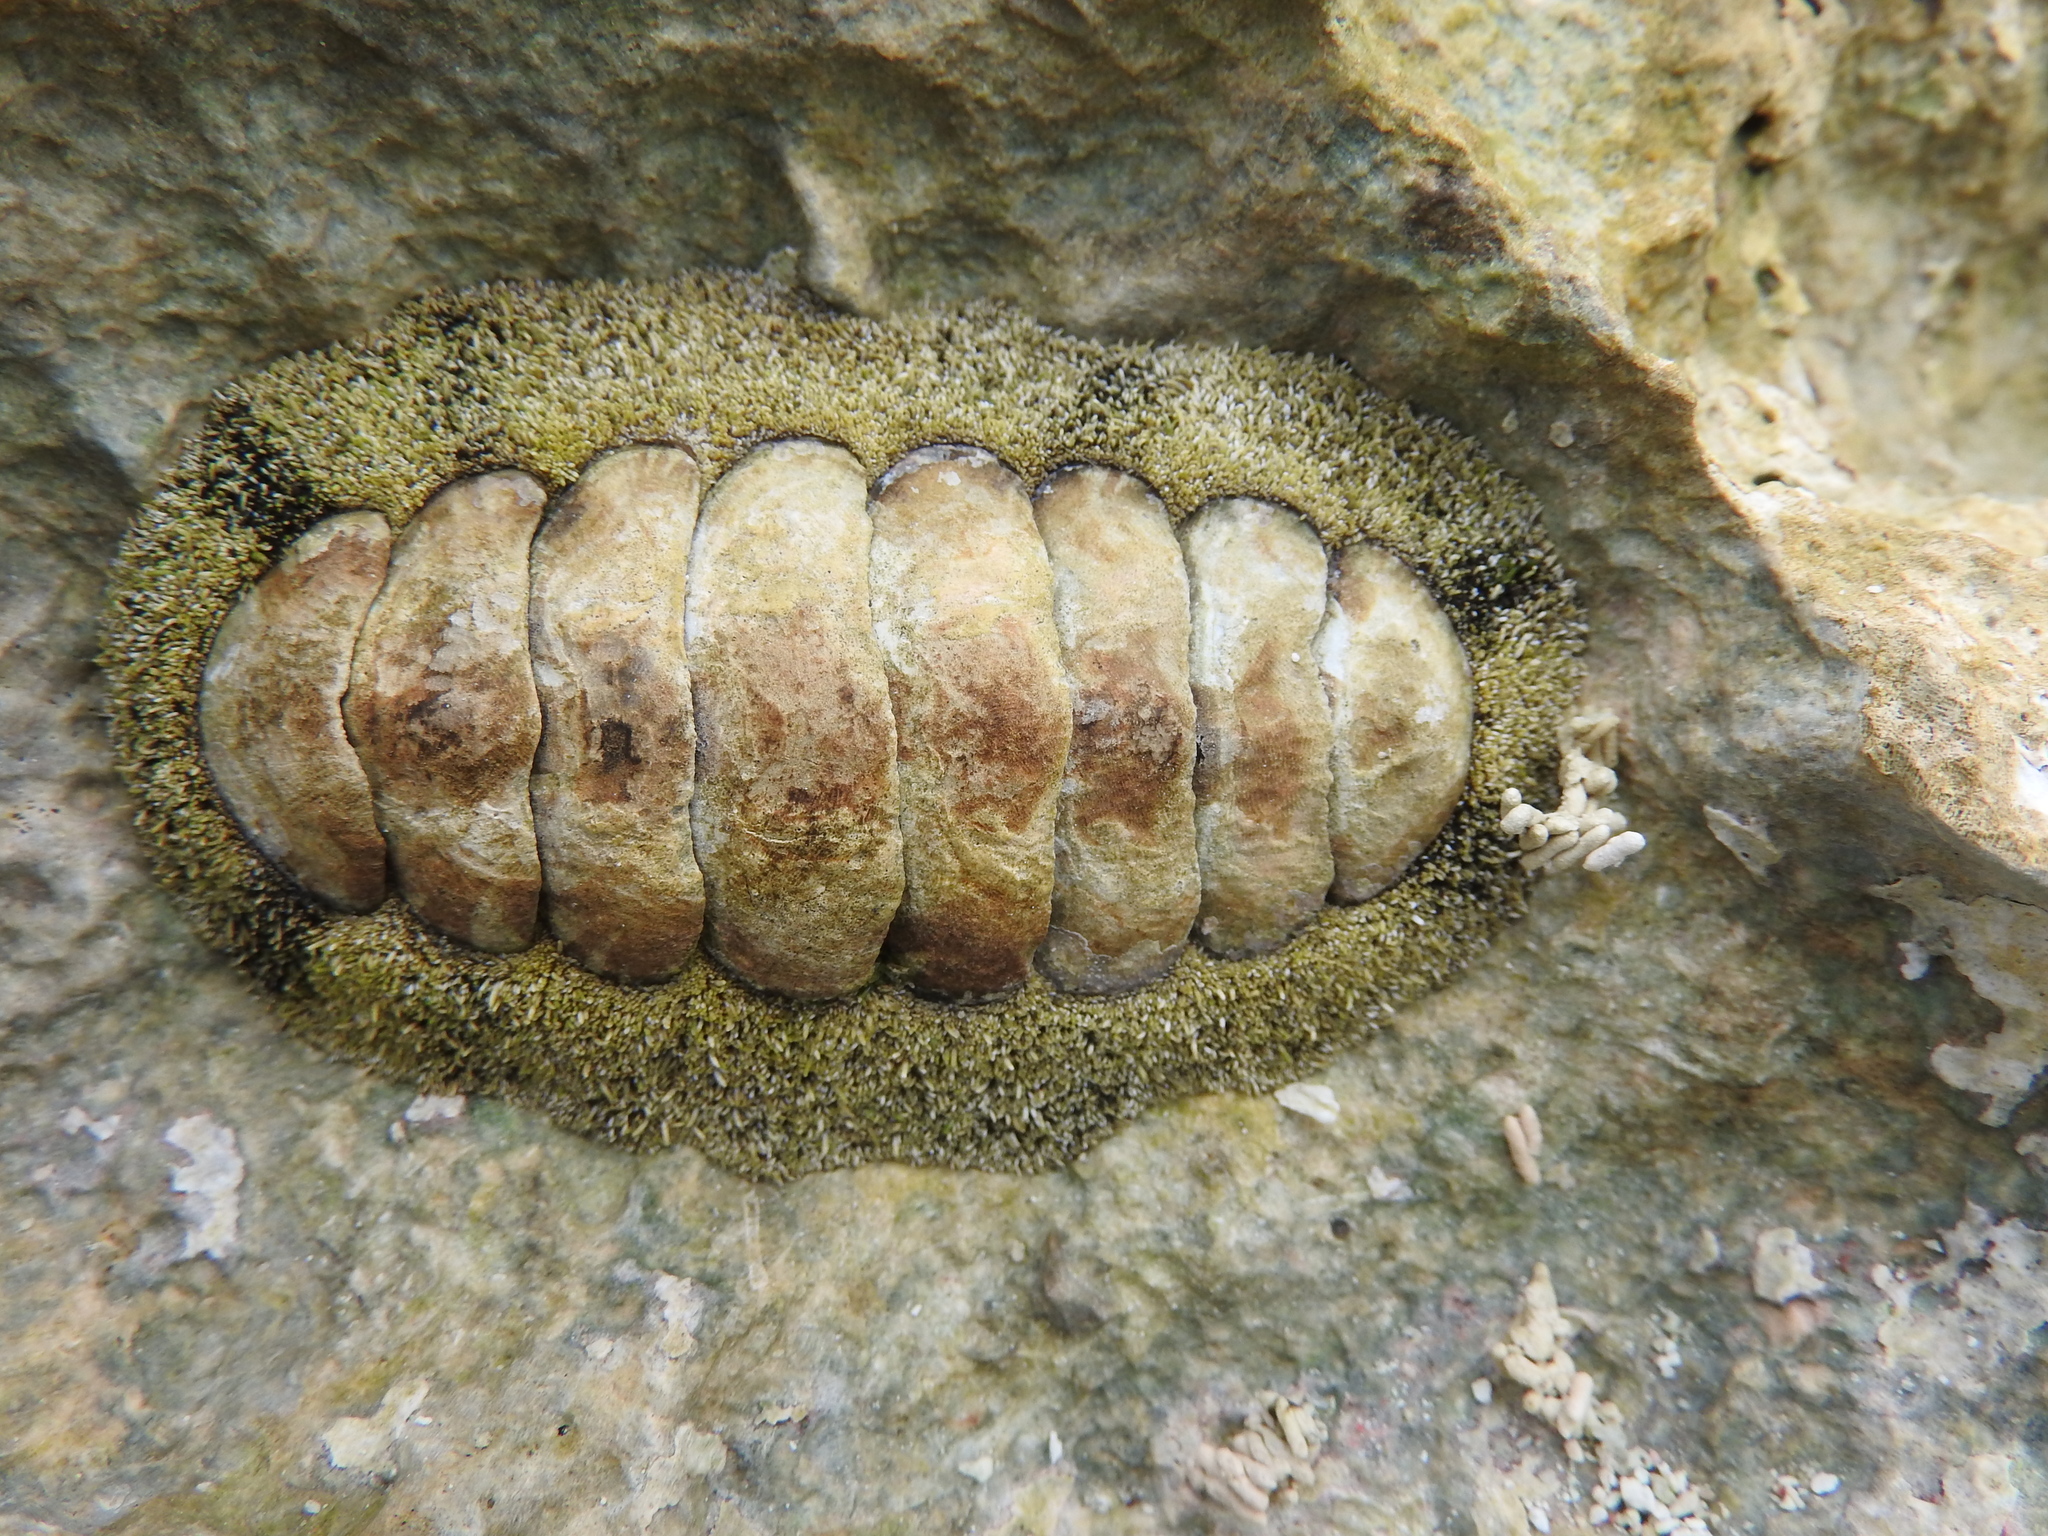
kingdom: Animalia
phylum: Mollusca
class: Polyplacophora
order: Chitonida
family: Chitonidae
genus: Acanthopleura
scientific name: Acanthopleura granulata
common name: West indian fuzzy chiton
